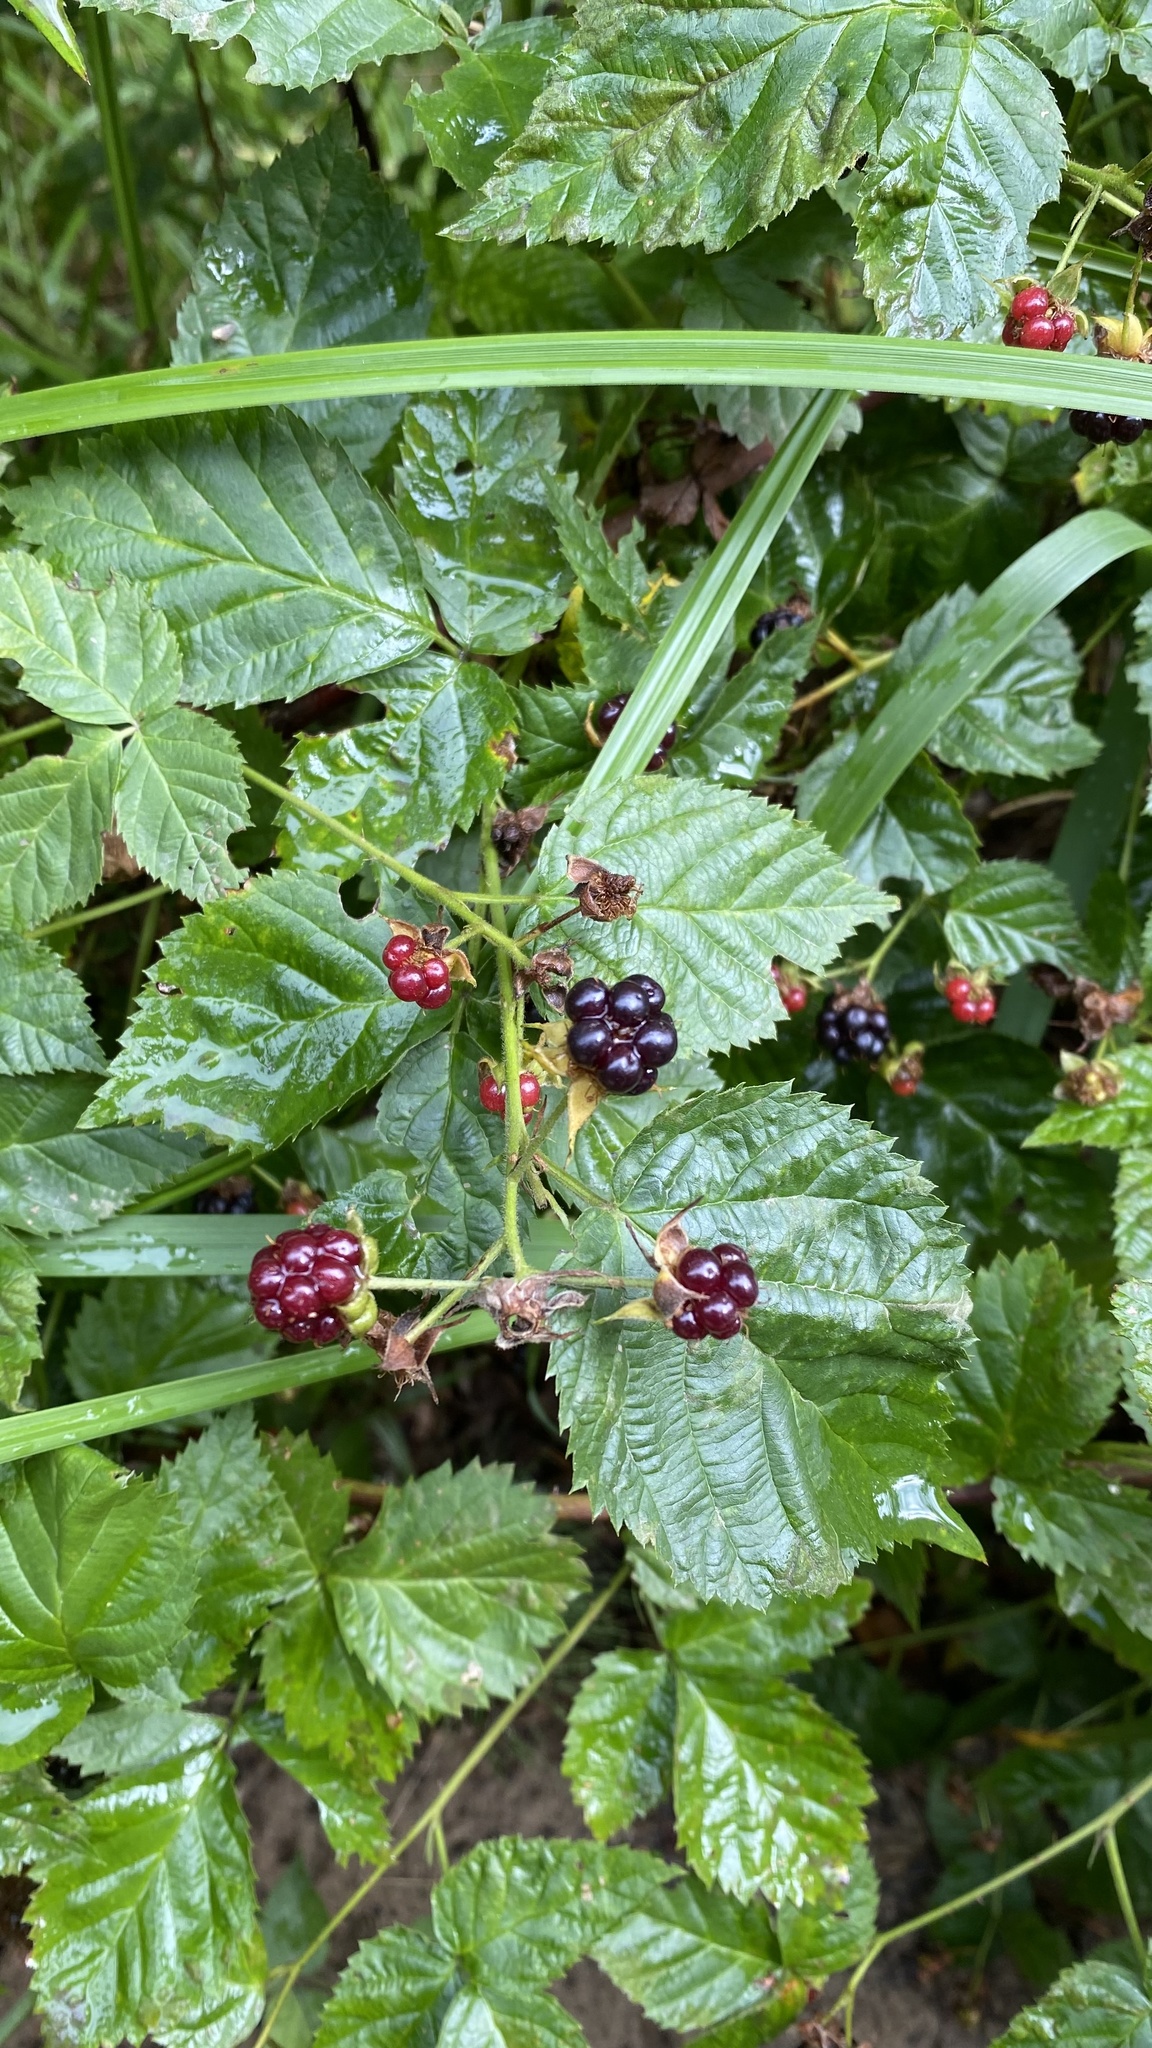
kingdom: Plantae
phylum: Tracheophyta
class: Magnoliopsida
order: Rosales
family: Rosaceae
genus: Rubus
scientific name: Rubus polonicus
